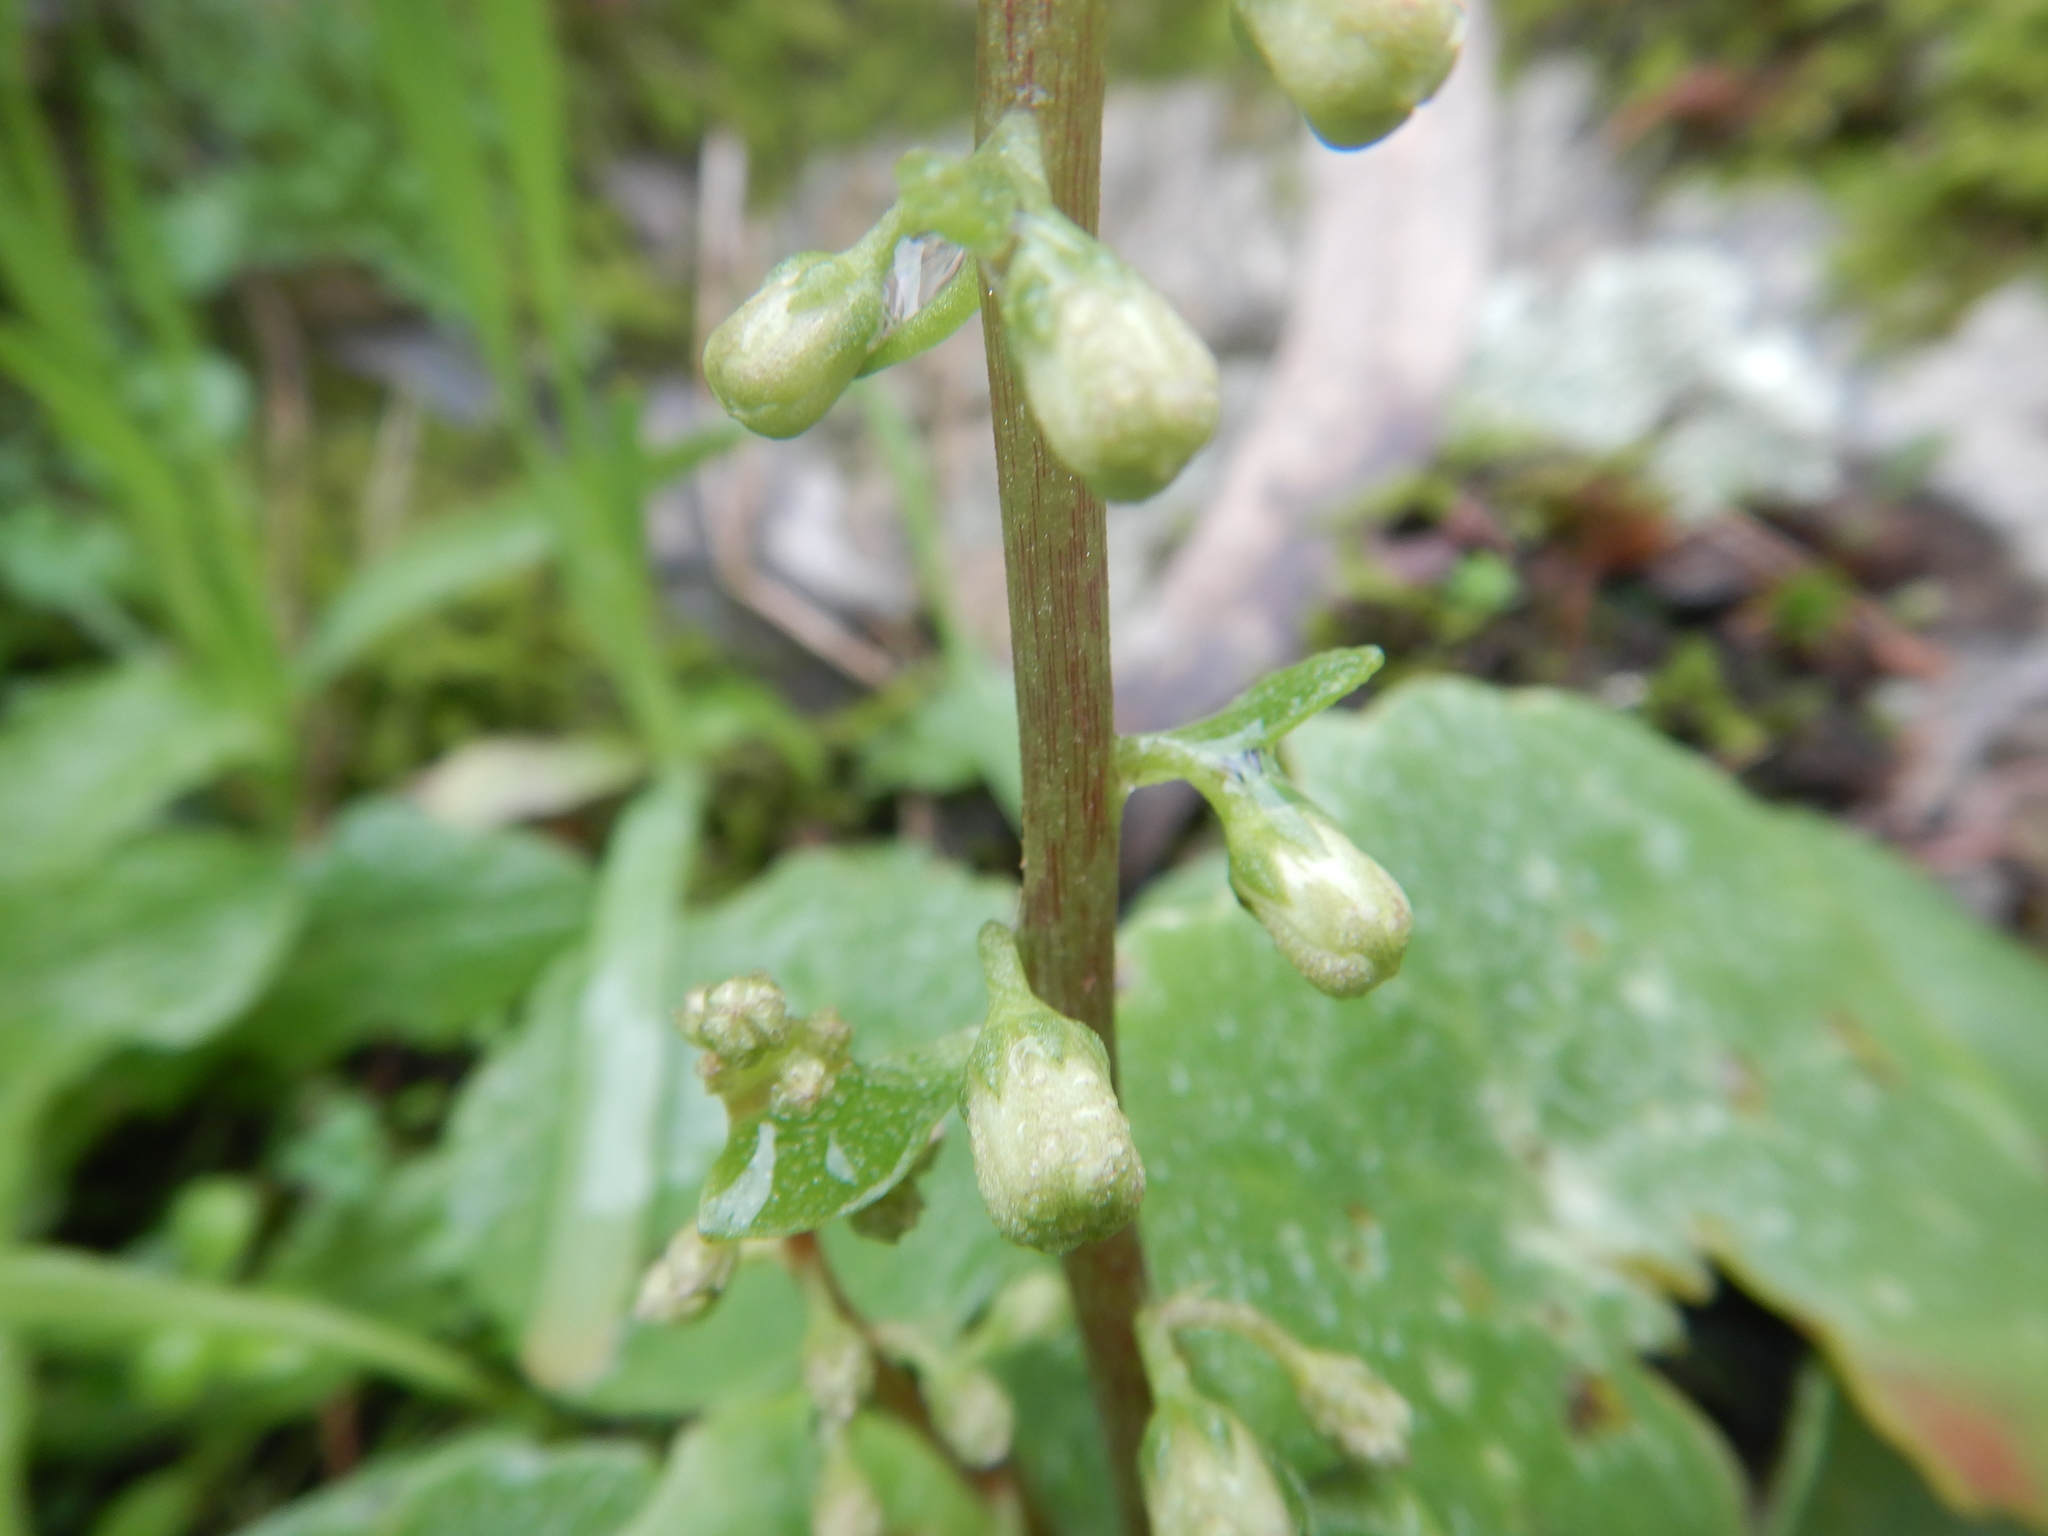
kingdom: Plantae
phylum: Tracheophyta
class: Magnoliopsida
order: Saxifragales
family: Crassulaceae
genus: Umbilicus
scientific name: Umbilicus rupestris
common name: Navelwort
